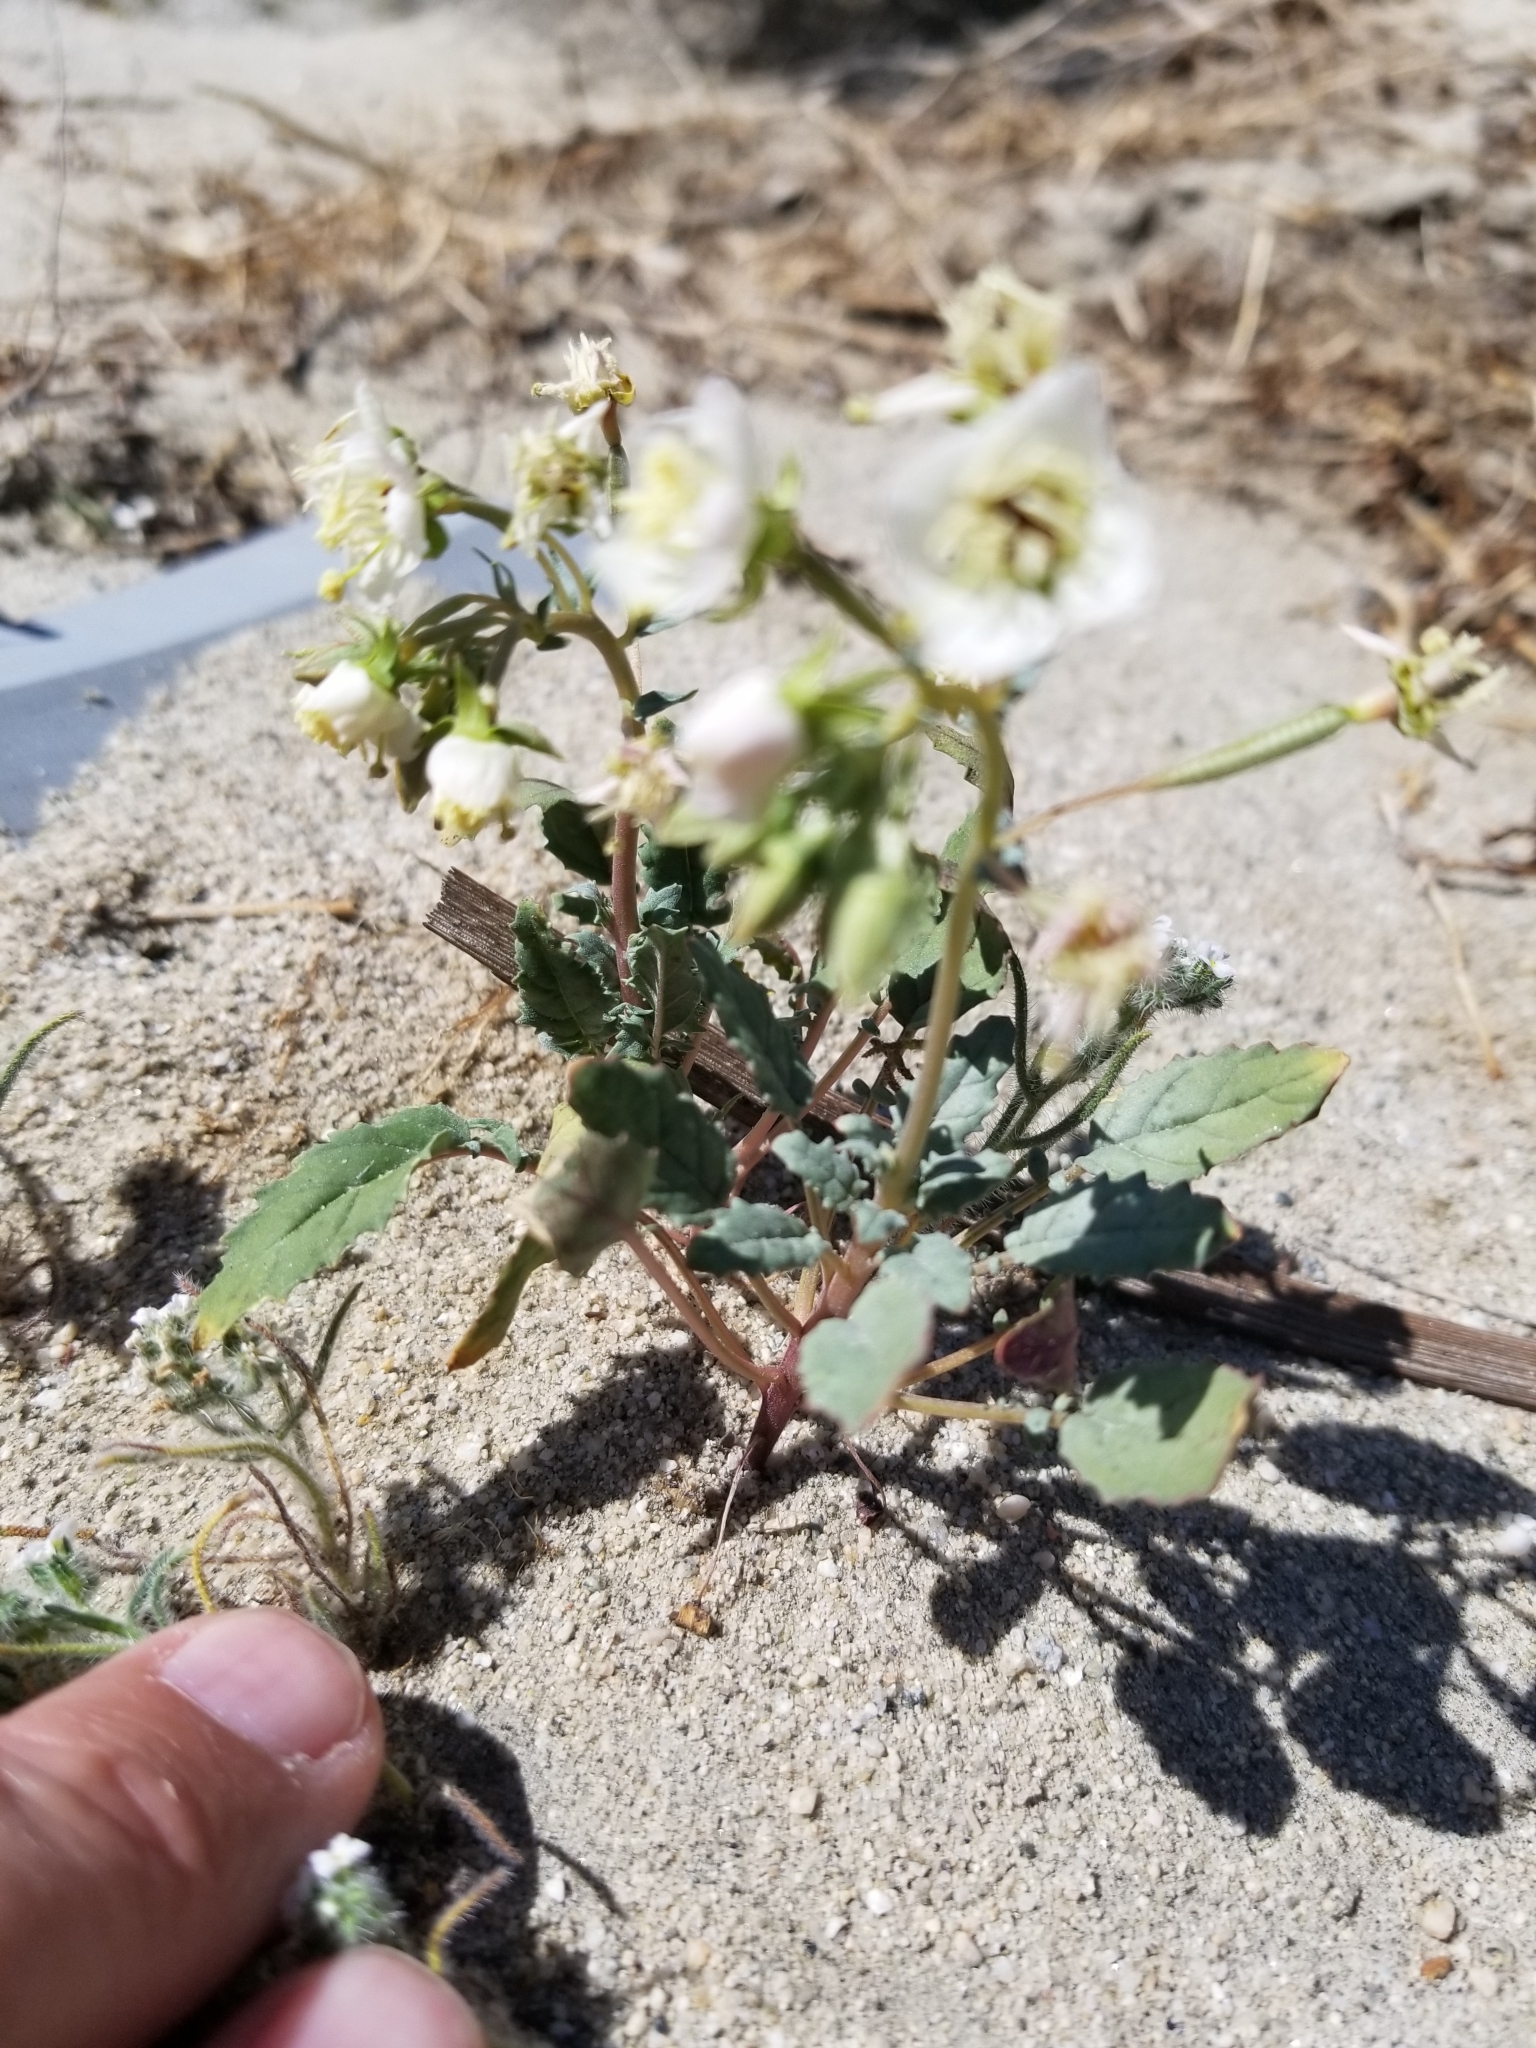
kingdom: Plantae
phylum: Tracheophyta
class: Magnoliopsida
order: Myrtales
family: Onagraceae
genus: Chylismia
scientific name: Chylismia claviformis
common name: Browneyes
